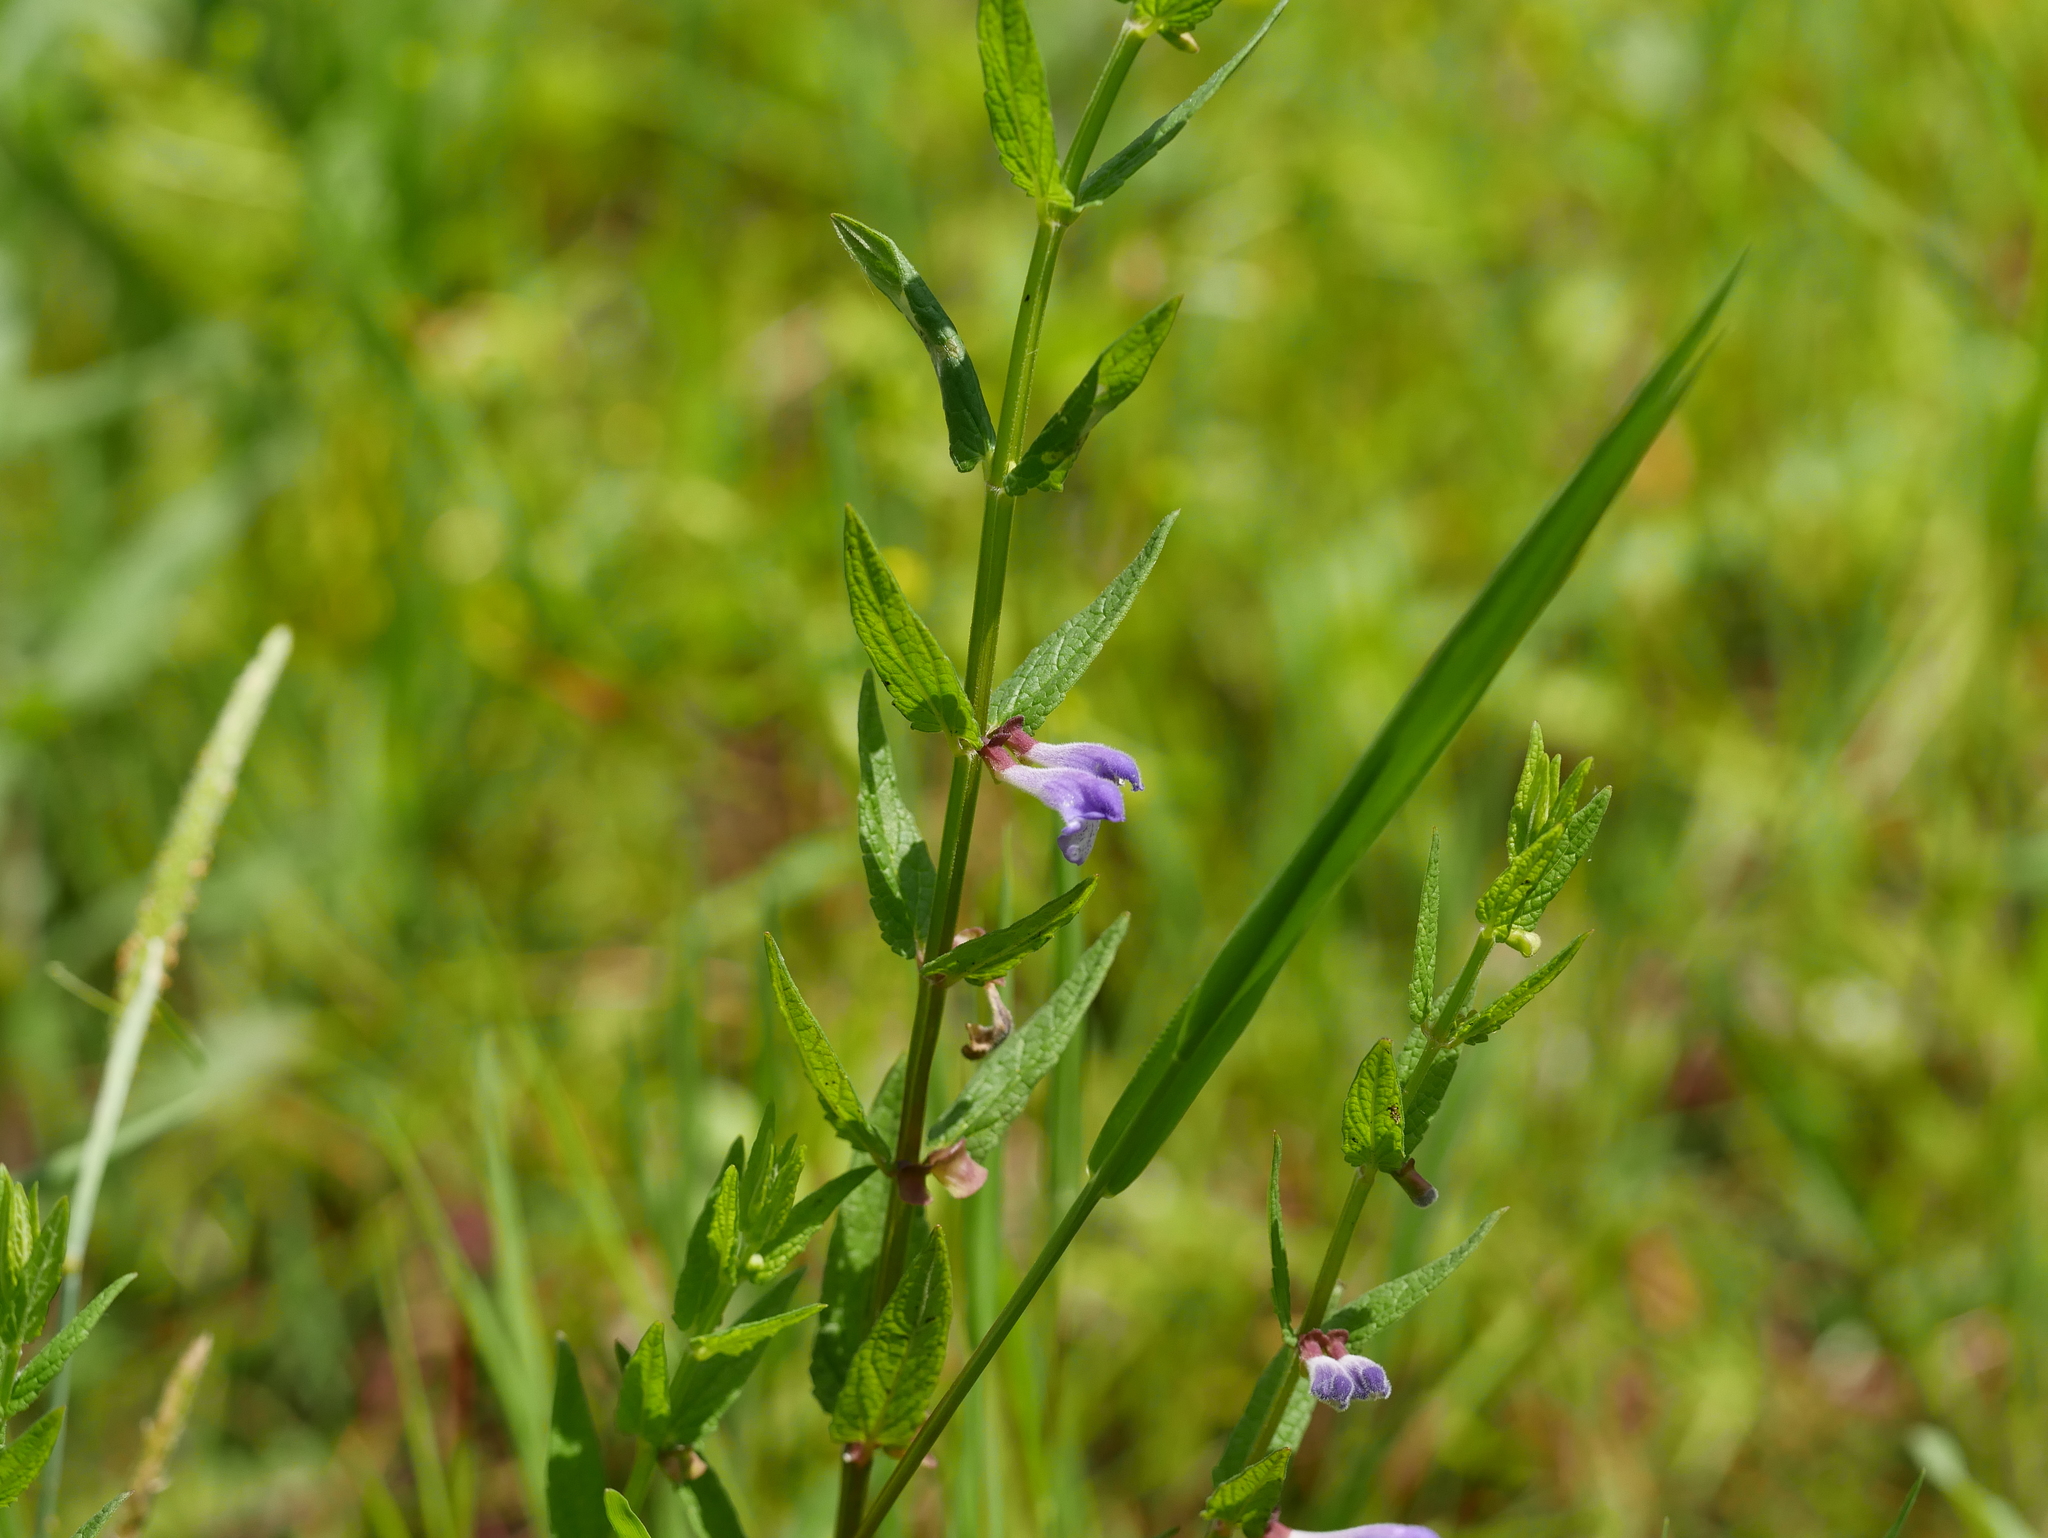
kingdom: Plantae
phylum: Tracheophyta
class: Magnoliopsida
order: Lamiales
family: Lamiaceae
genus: Scutellaria
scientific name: Scutellaria galericulata
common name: Skullcap
